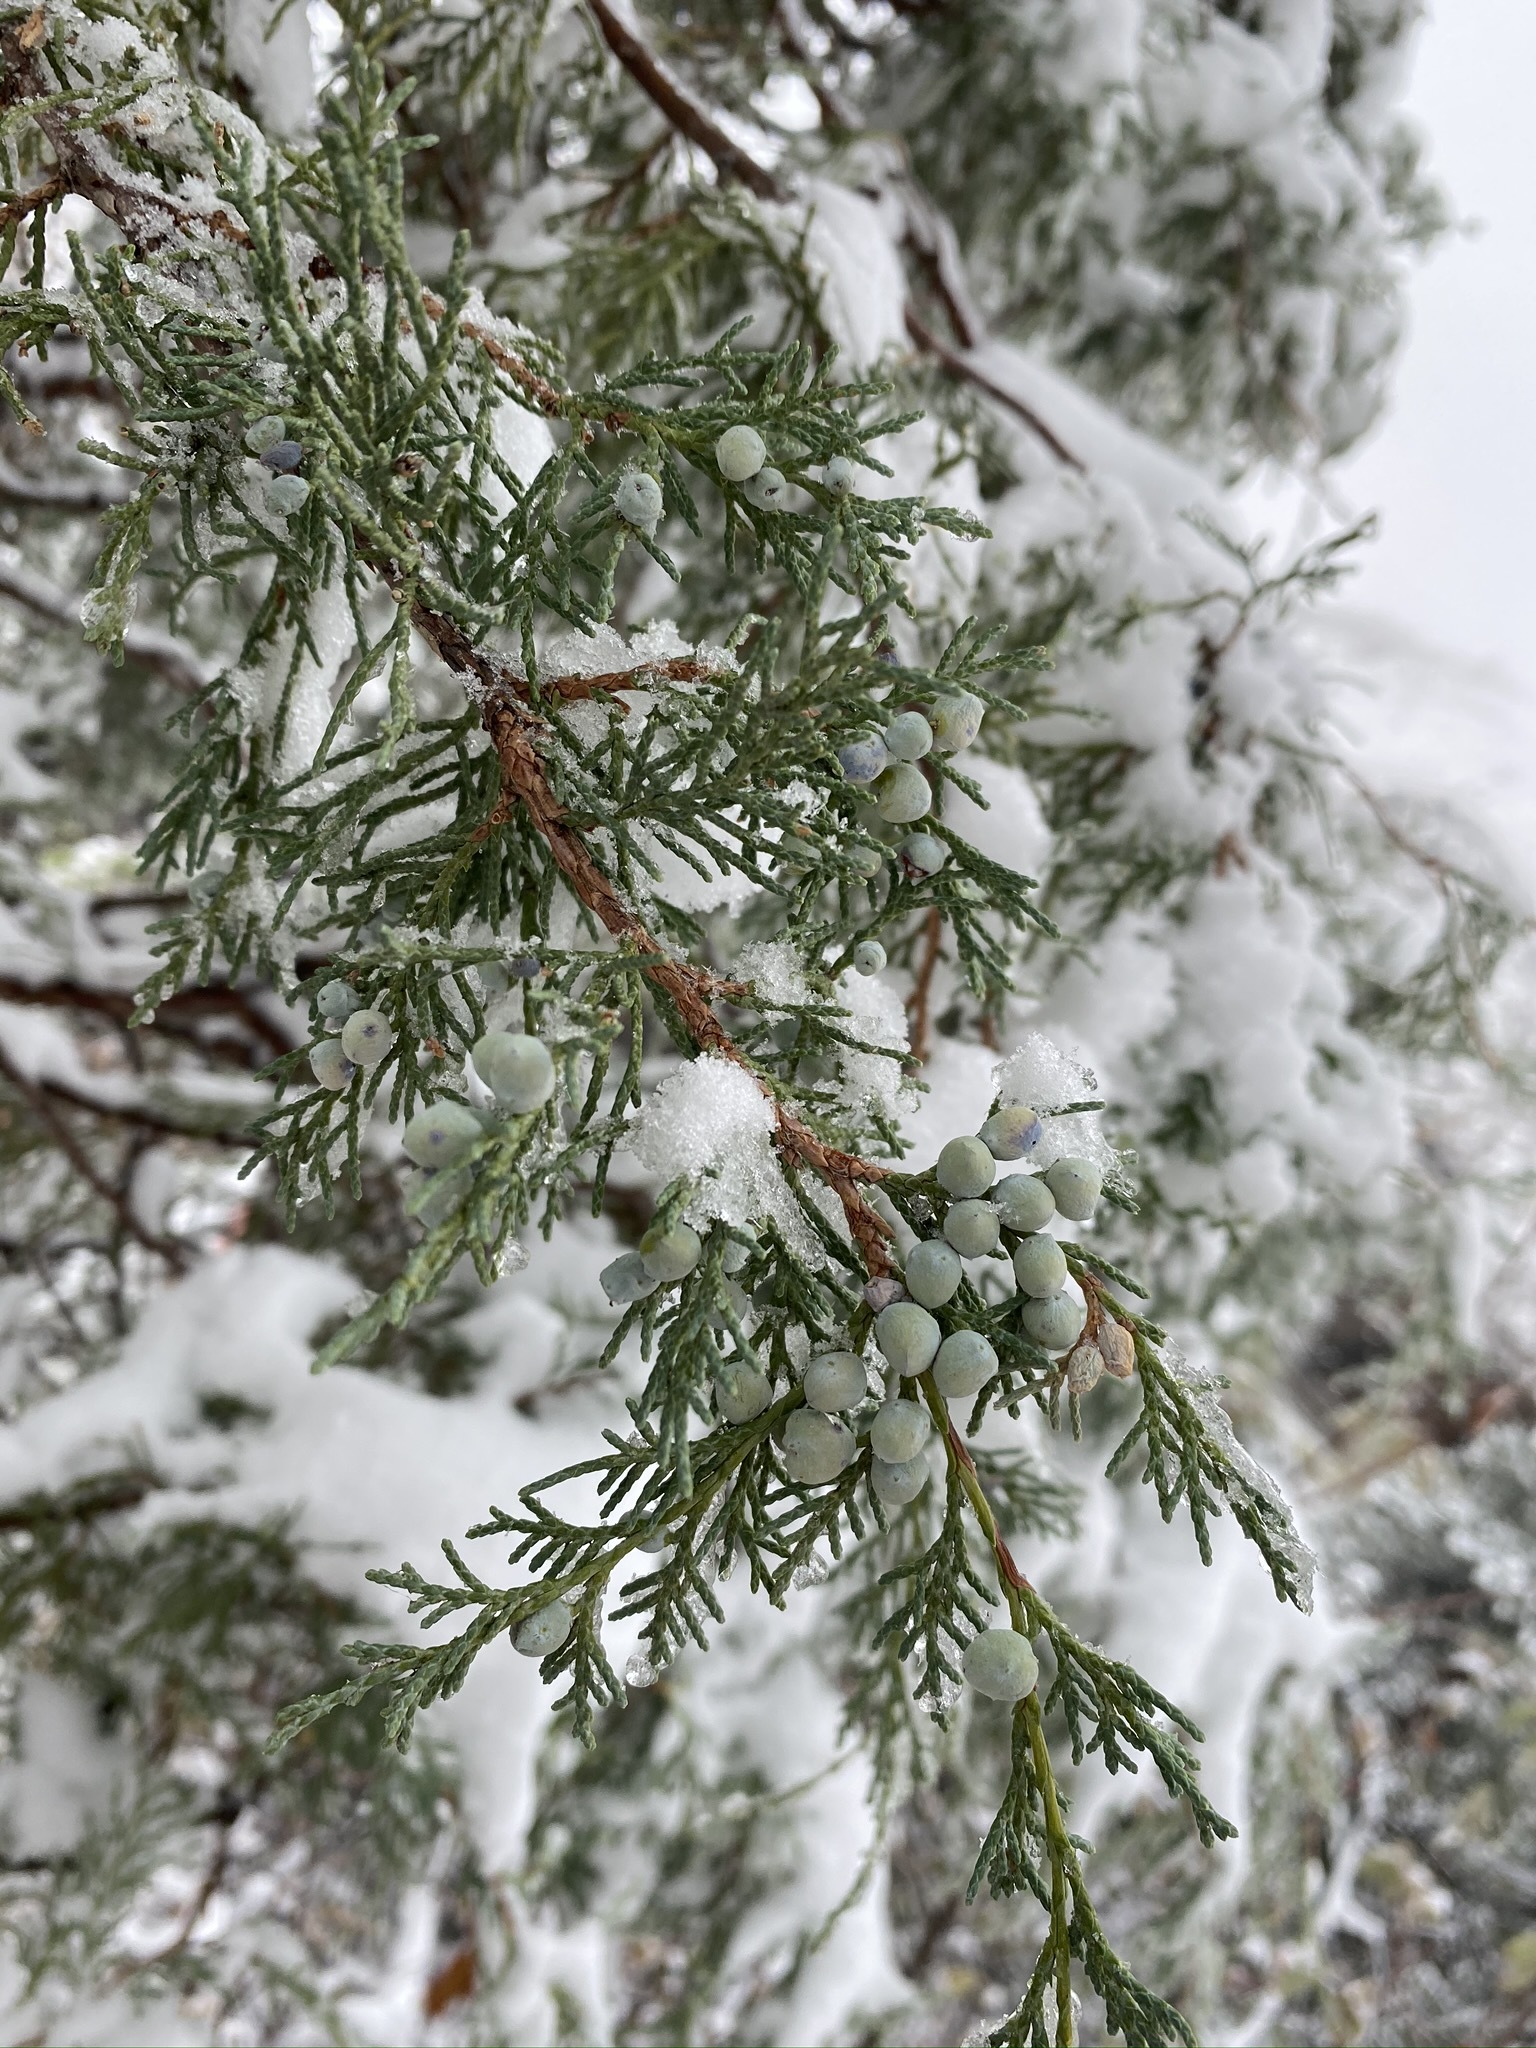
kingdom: Plantae
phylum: Tracheophyta
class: Pinopsida
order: Pinales
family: Cupressaceae
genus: Juniperus
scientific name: Juniperus scopulorum
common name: Rocky mountain juniper
